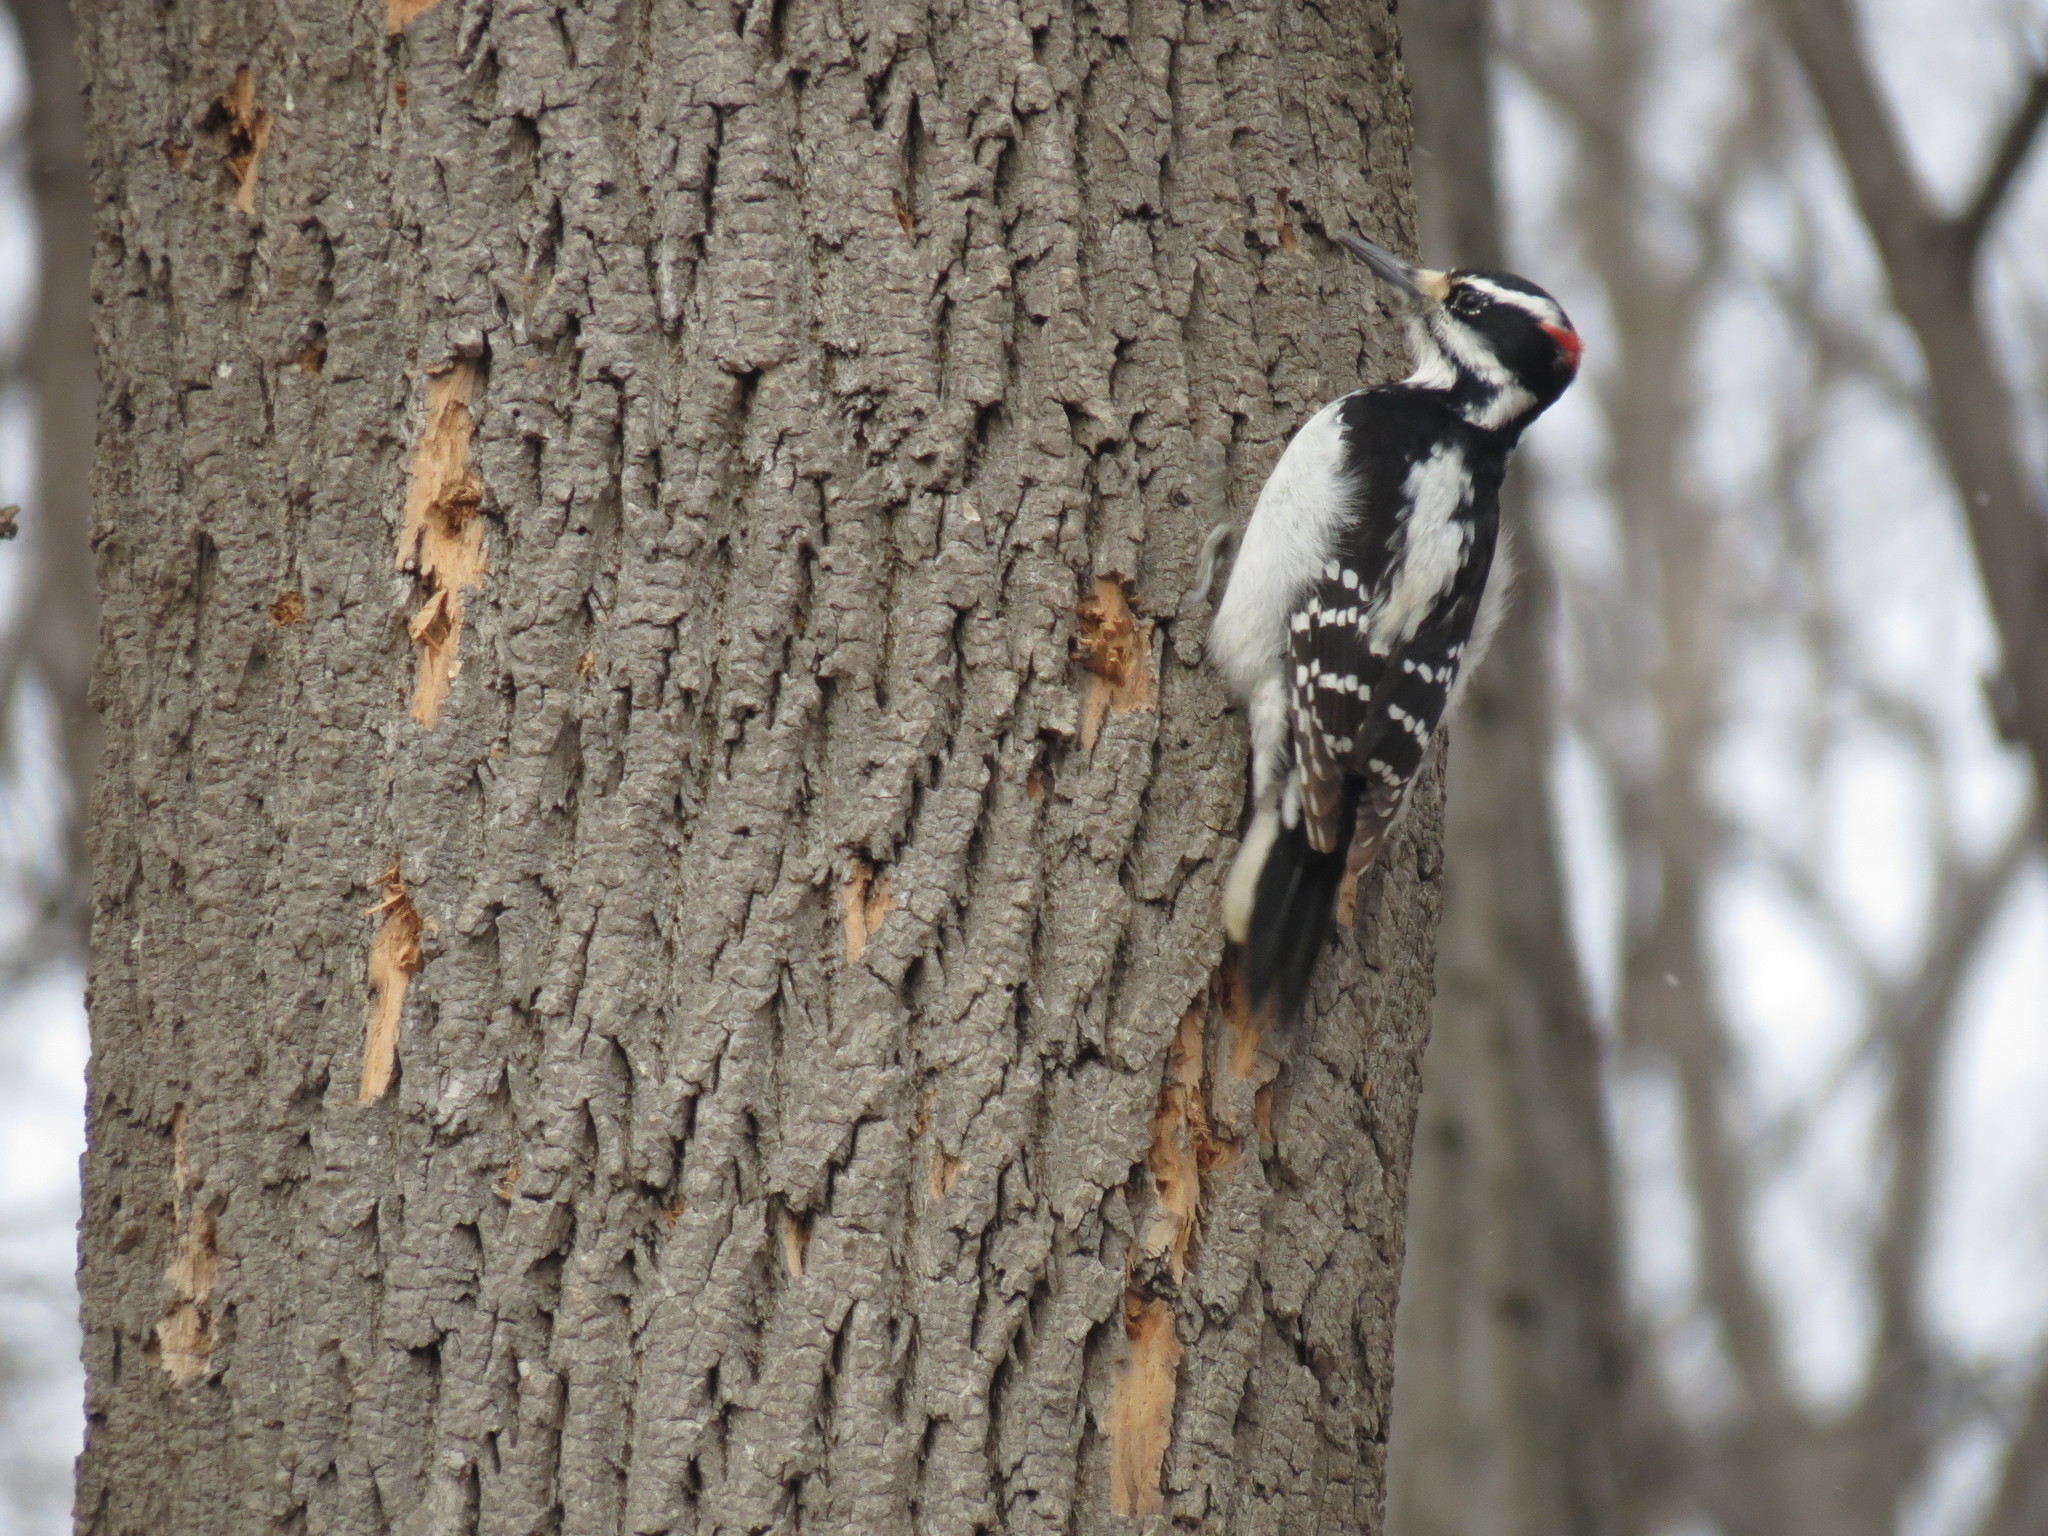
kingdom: Animalia
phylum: Chordata
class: Aves
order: Piciformes
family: Picidae
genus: Leuconotopicus
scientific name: Leuconotopicus villosus
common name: Hairy woodpecker
